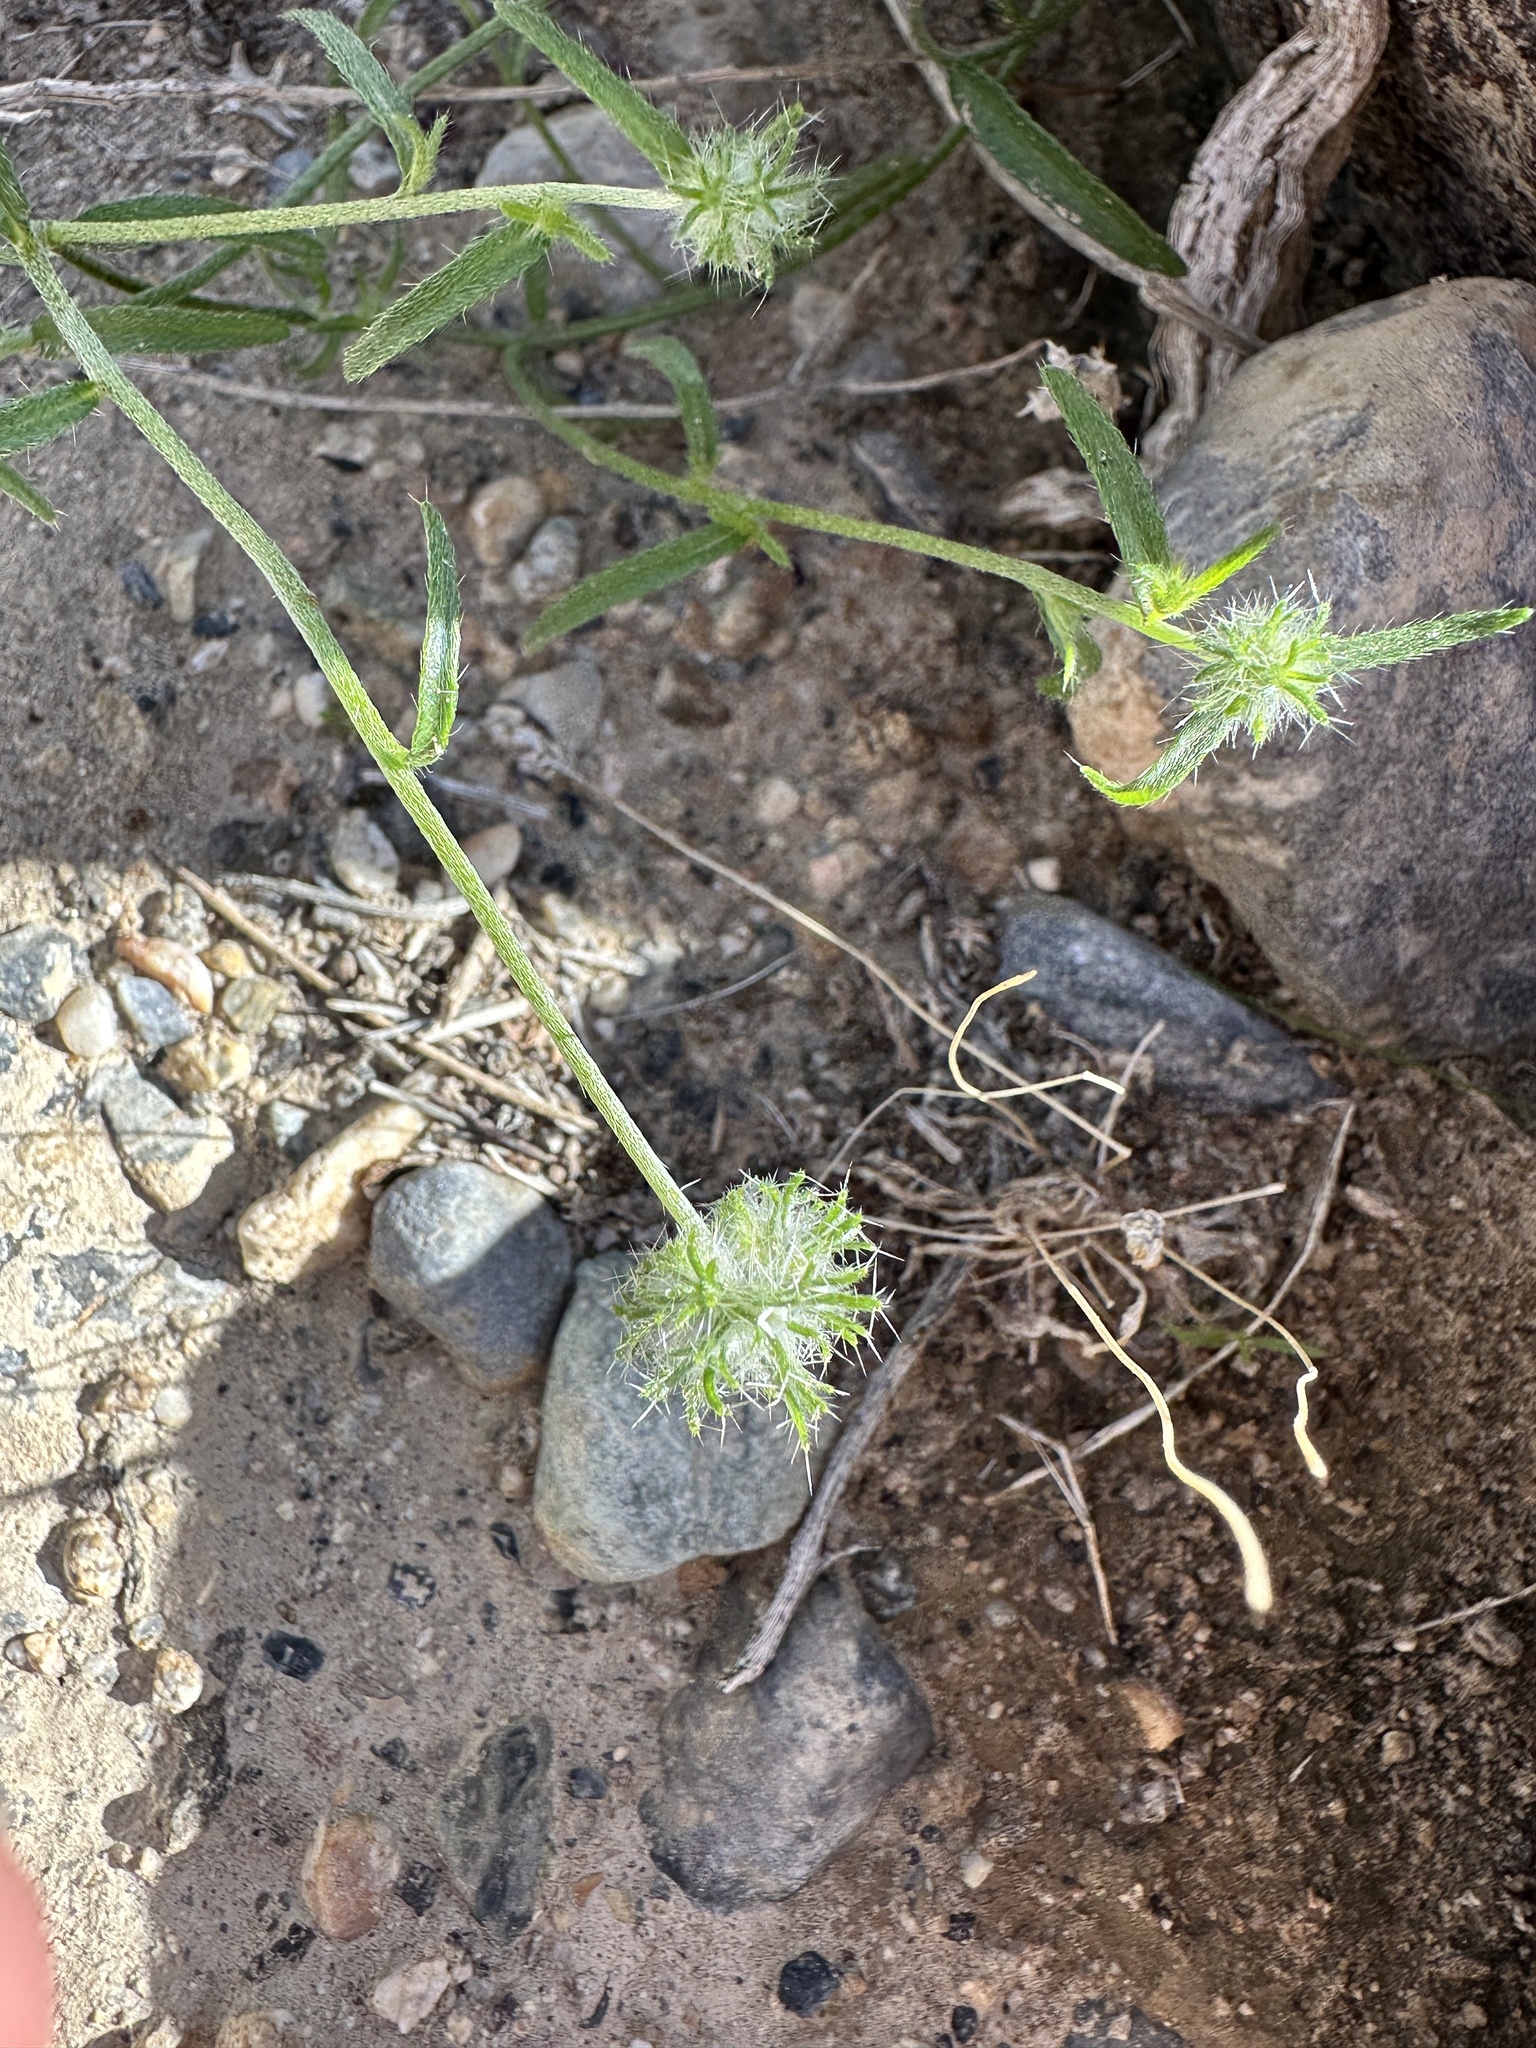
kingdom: Plantae
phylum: Tracheophyta
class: Magnoliopsida
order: Boraginales
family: Boraginaceae
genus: Cryptantha
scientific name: Cryptantha nevadensis
